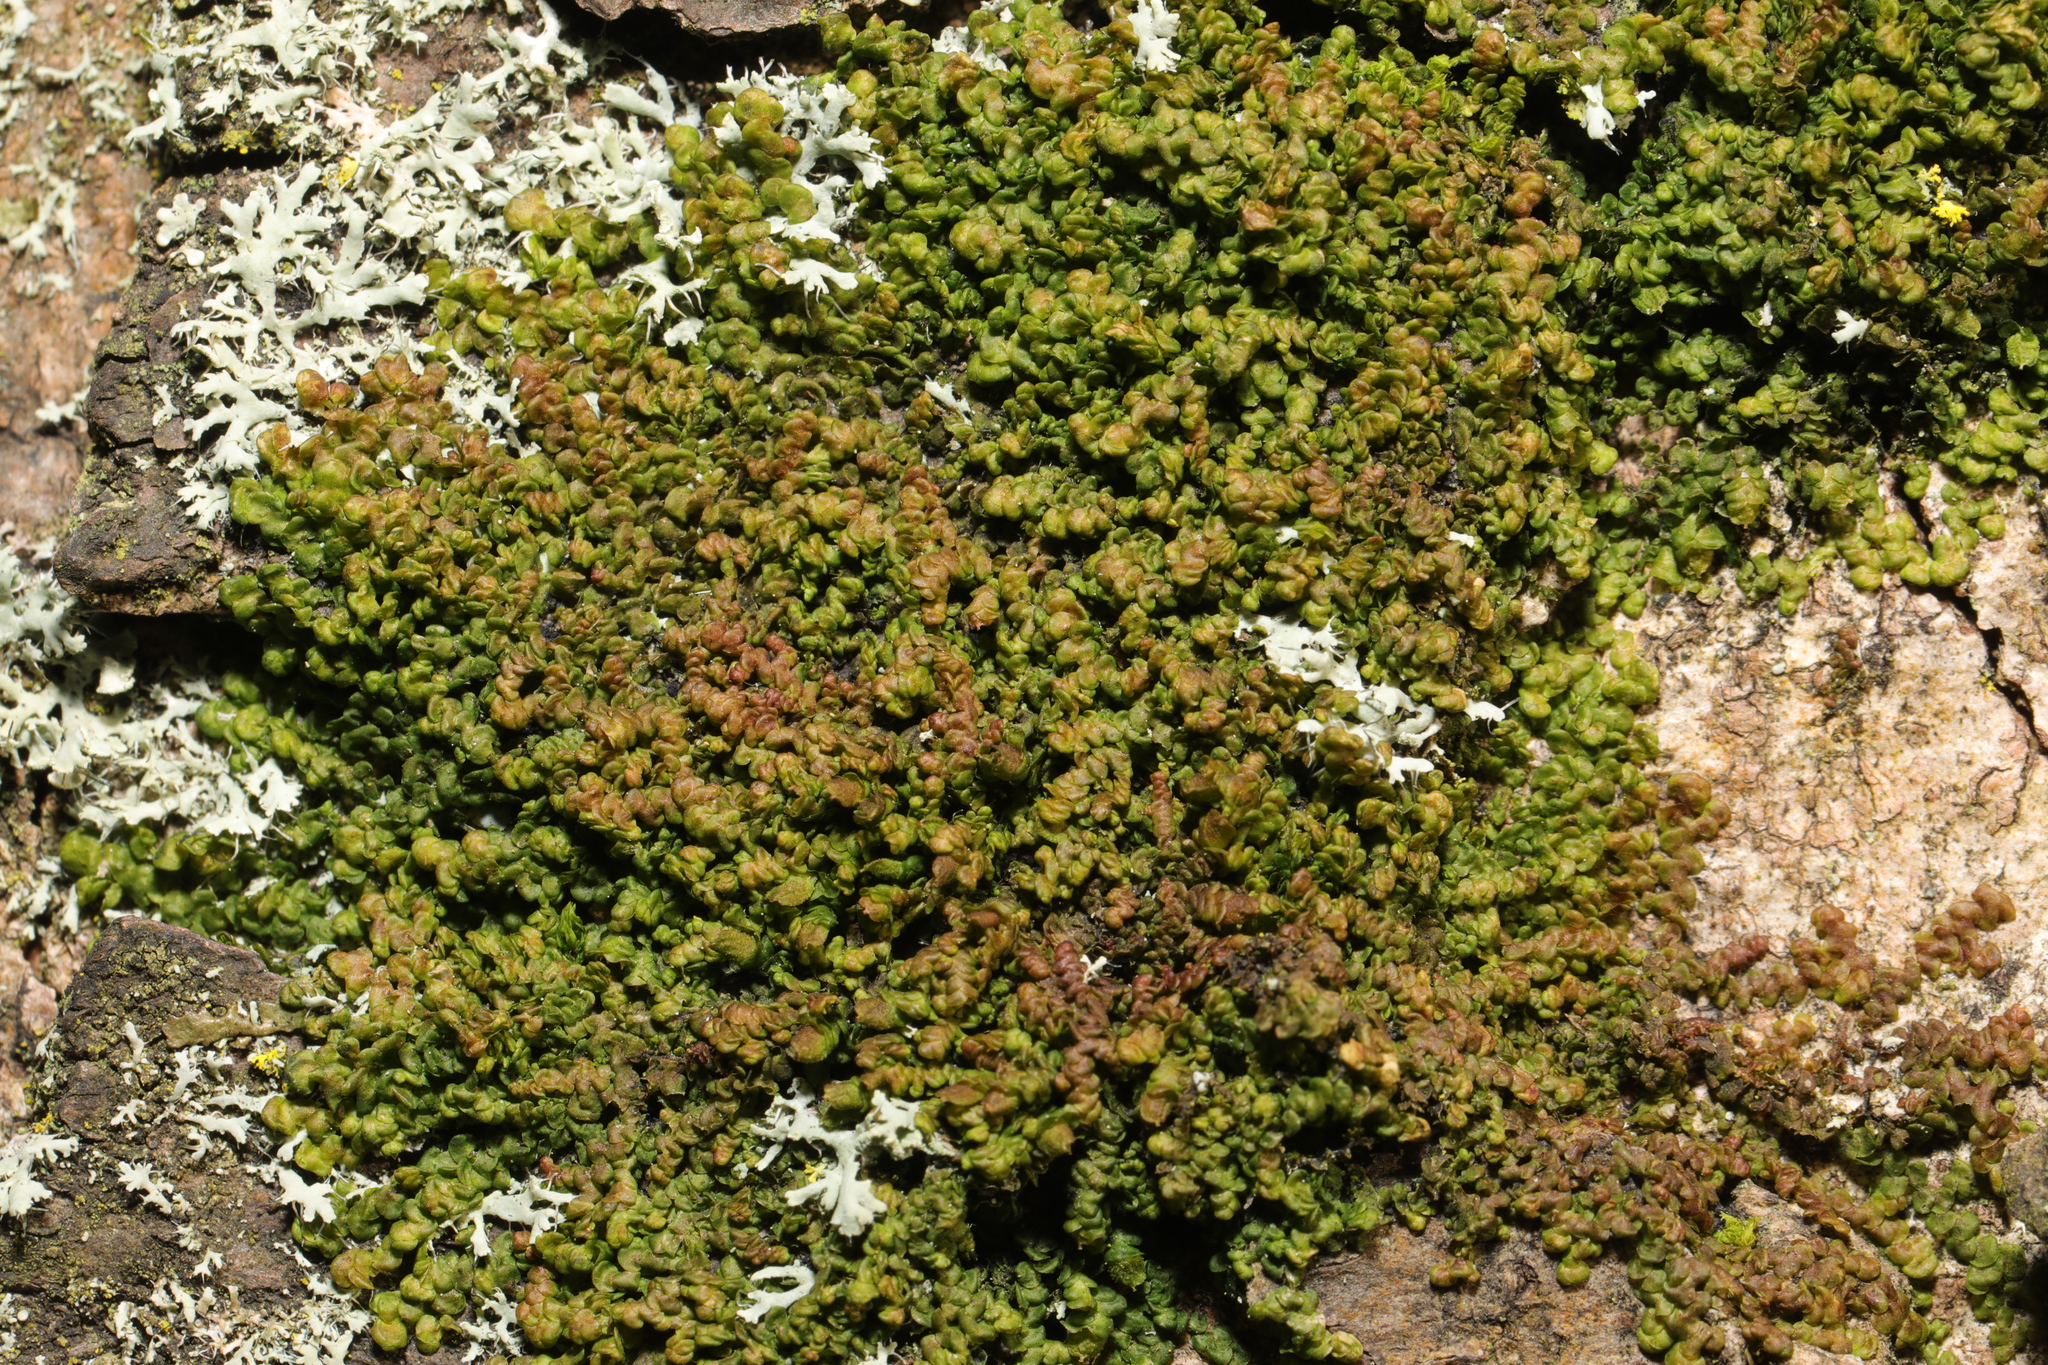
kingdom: Plantae
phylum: Marchantiophyta
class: Jungermanniopsida
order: Porellales
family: Frullaniaceae
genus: Frullania
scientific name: Frullania dilatata
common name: Dilated scalewort
